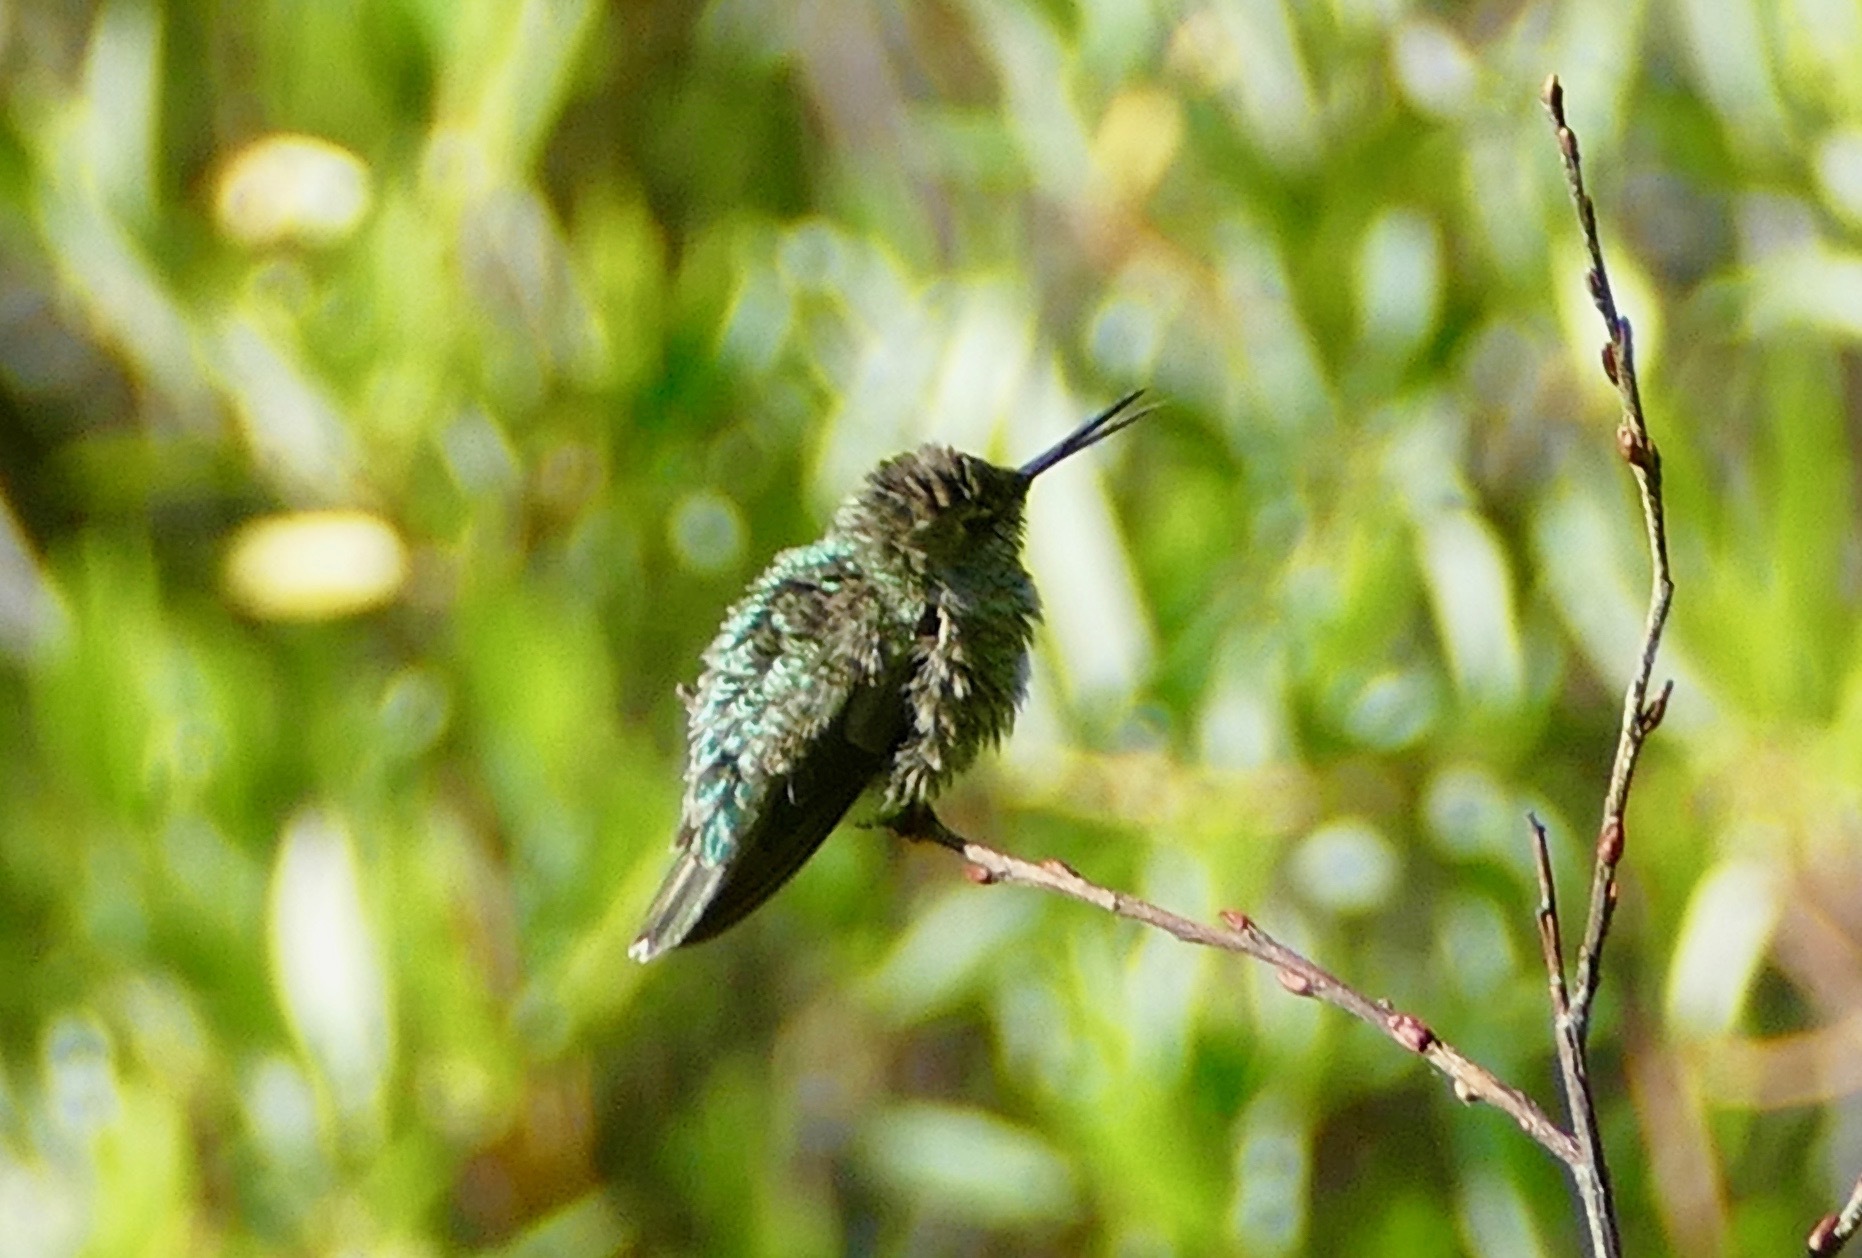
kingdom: Animalia
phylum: Chordata
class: Aves
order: Apodiformes
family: Trochilidae
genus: Calypte
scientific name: Calypte anna
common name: Anna's hummingbird
